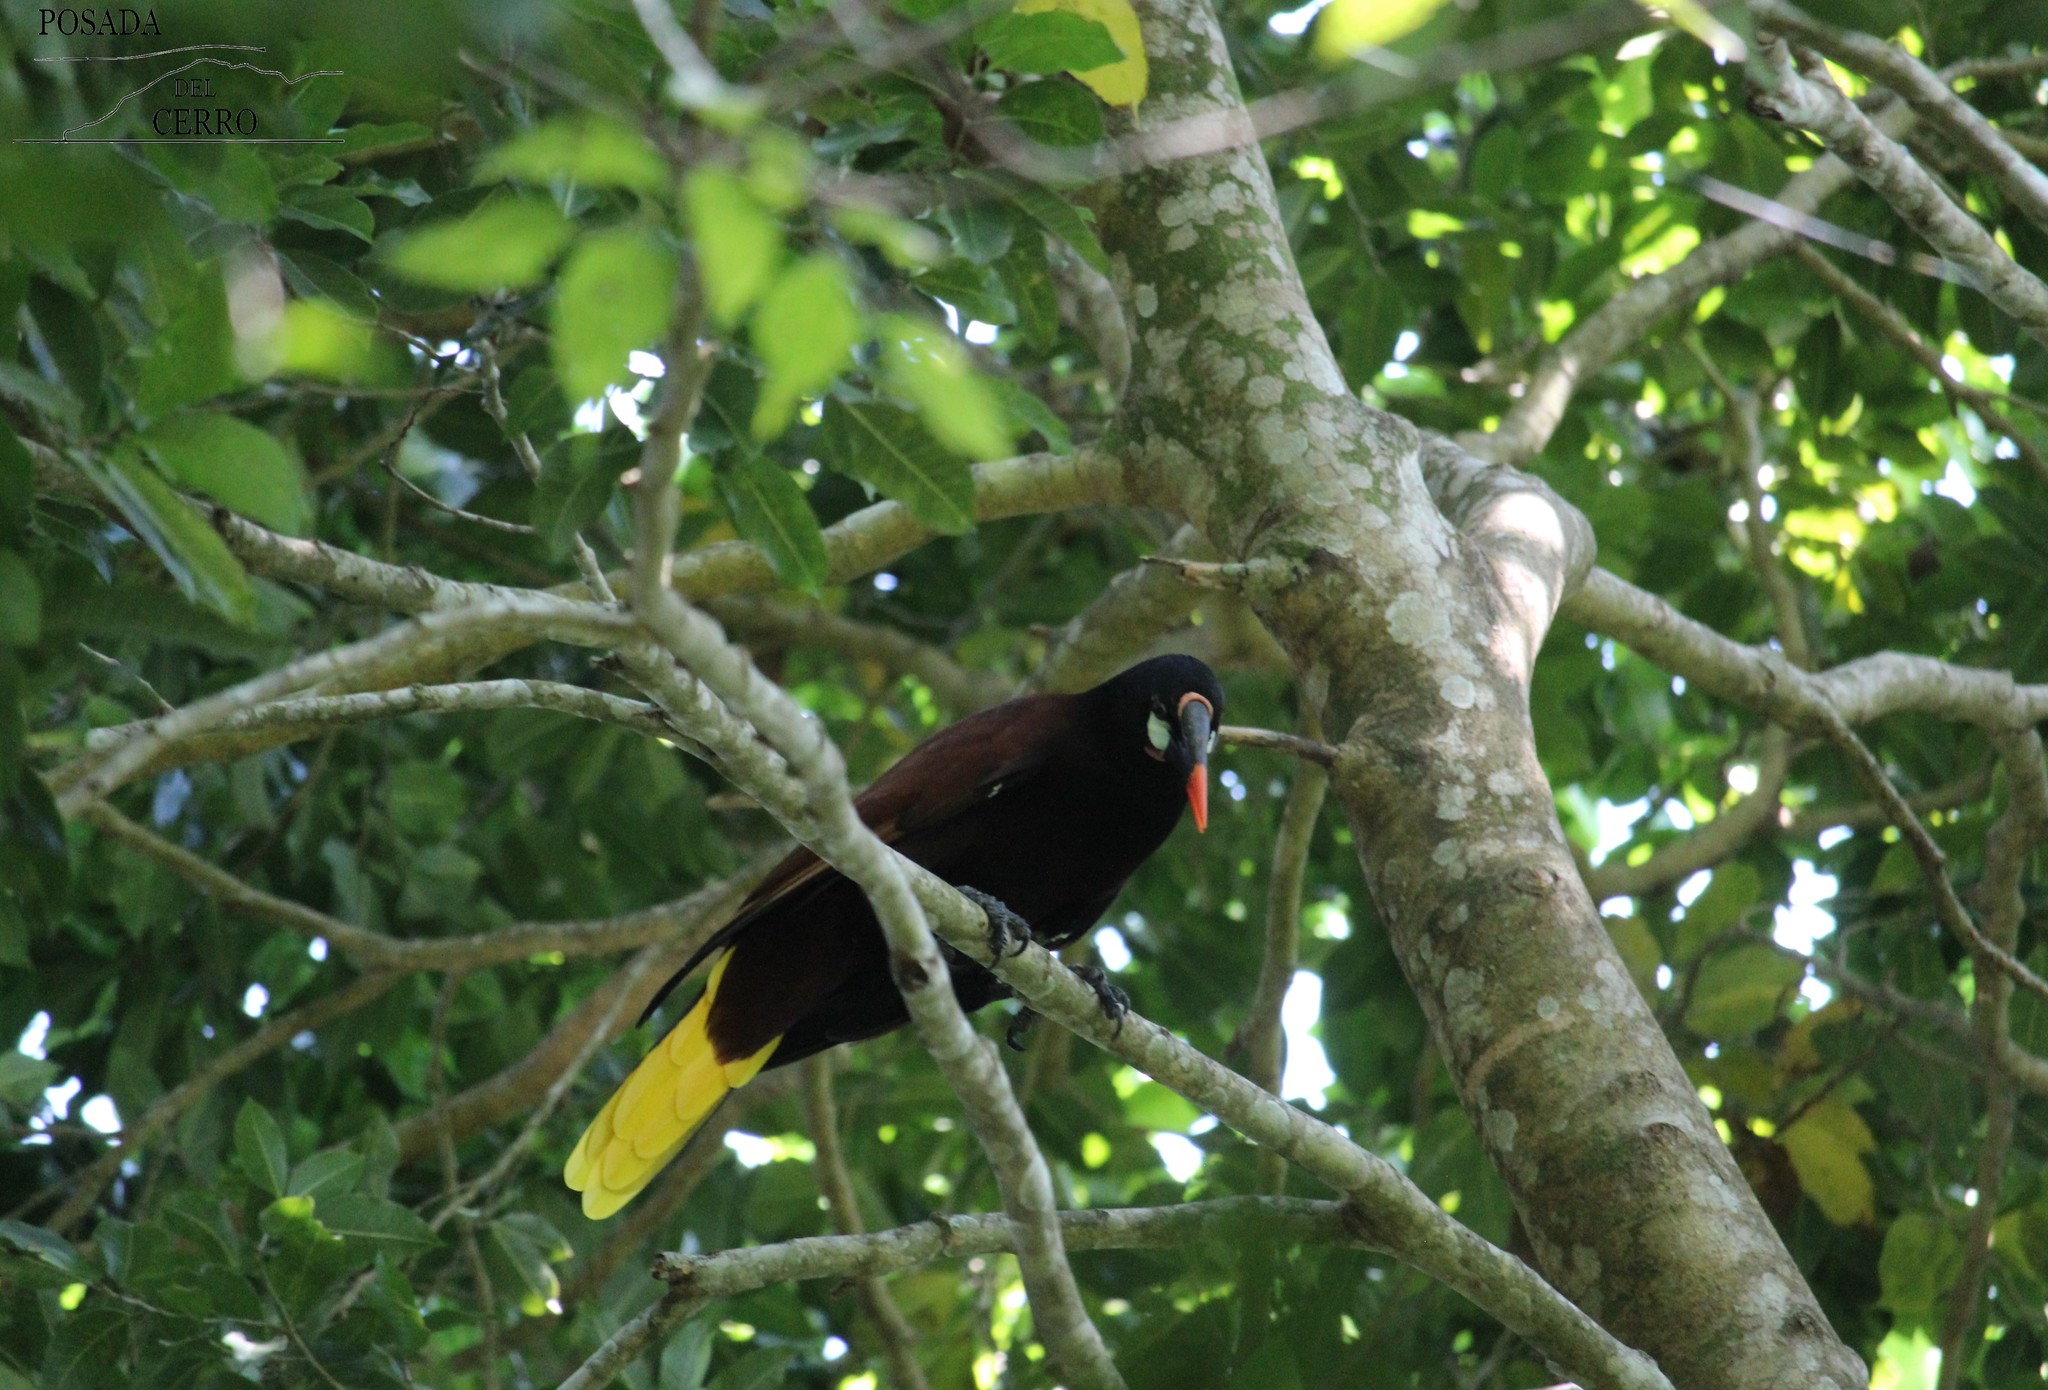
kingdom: Animalia
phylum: Chordata
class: Aves
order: Passeriformes
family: Icteridae
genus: Psarocolius
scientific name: Psarocolius montezuma
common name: Montezuma oropendola
